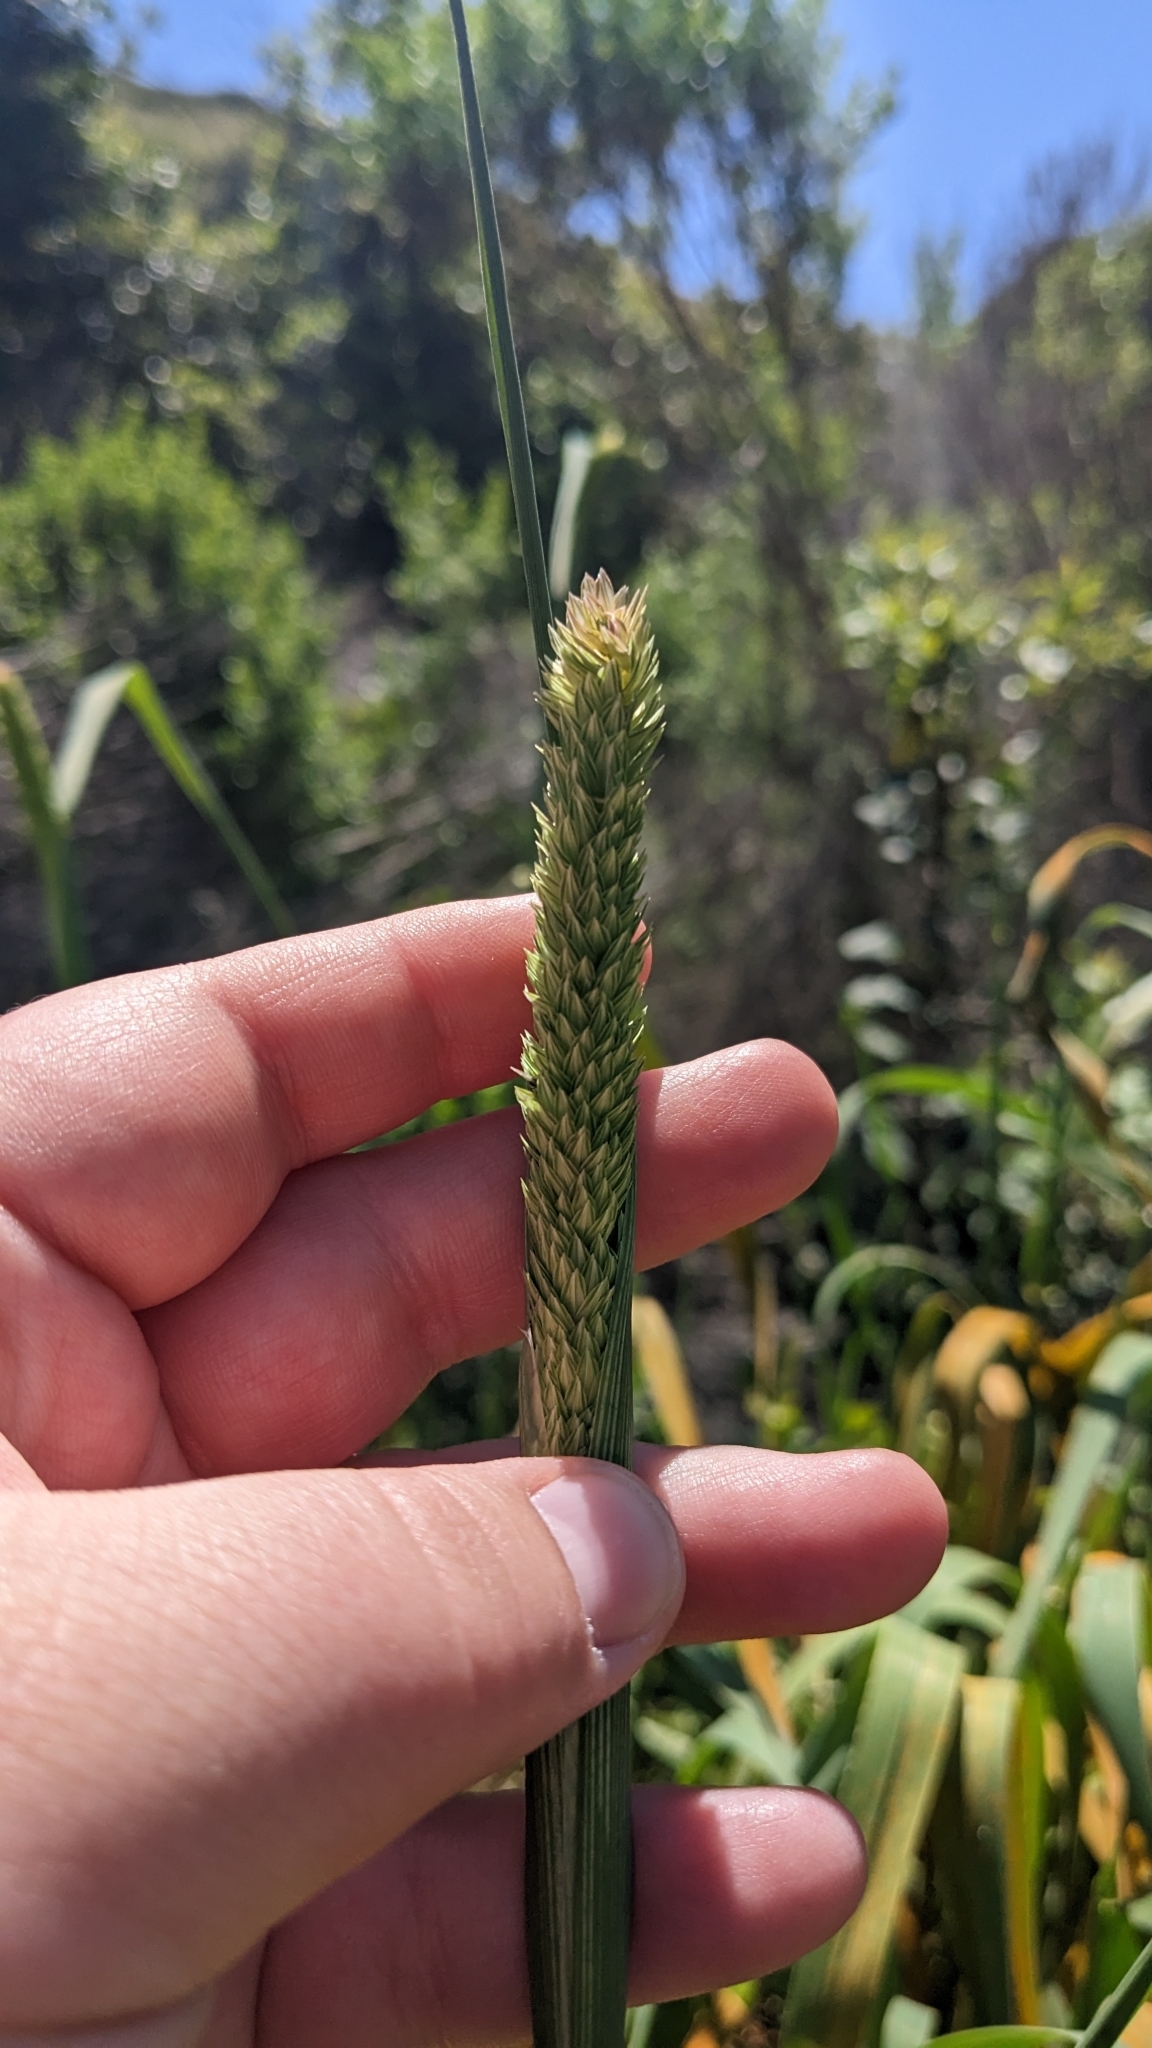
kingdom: Plantae
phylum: Tracheophyta
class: Liliopsida
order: Poales
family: Poaceae
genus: Phalaris
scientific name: Phalaris aquatica
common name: Bulbous canary-grass
